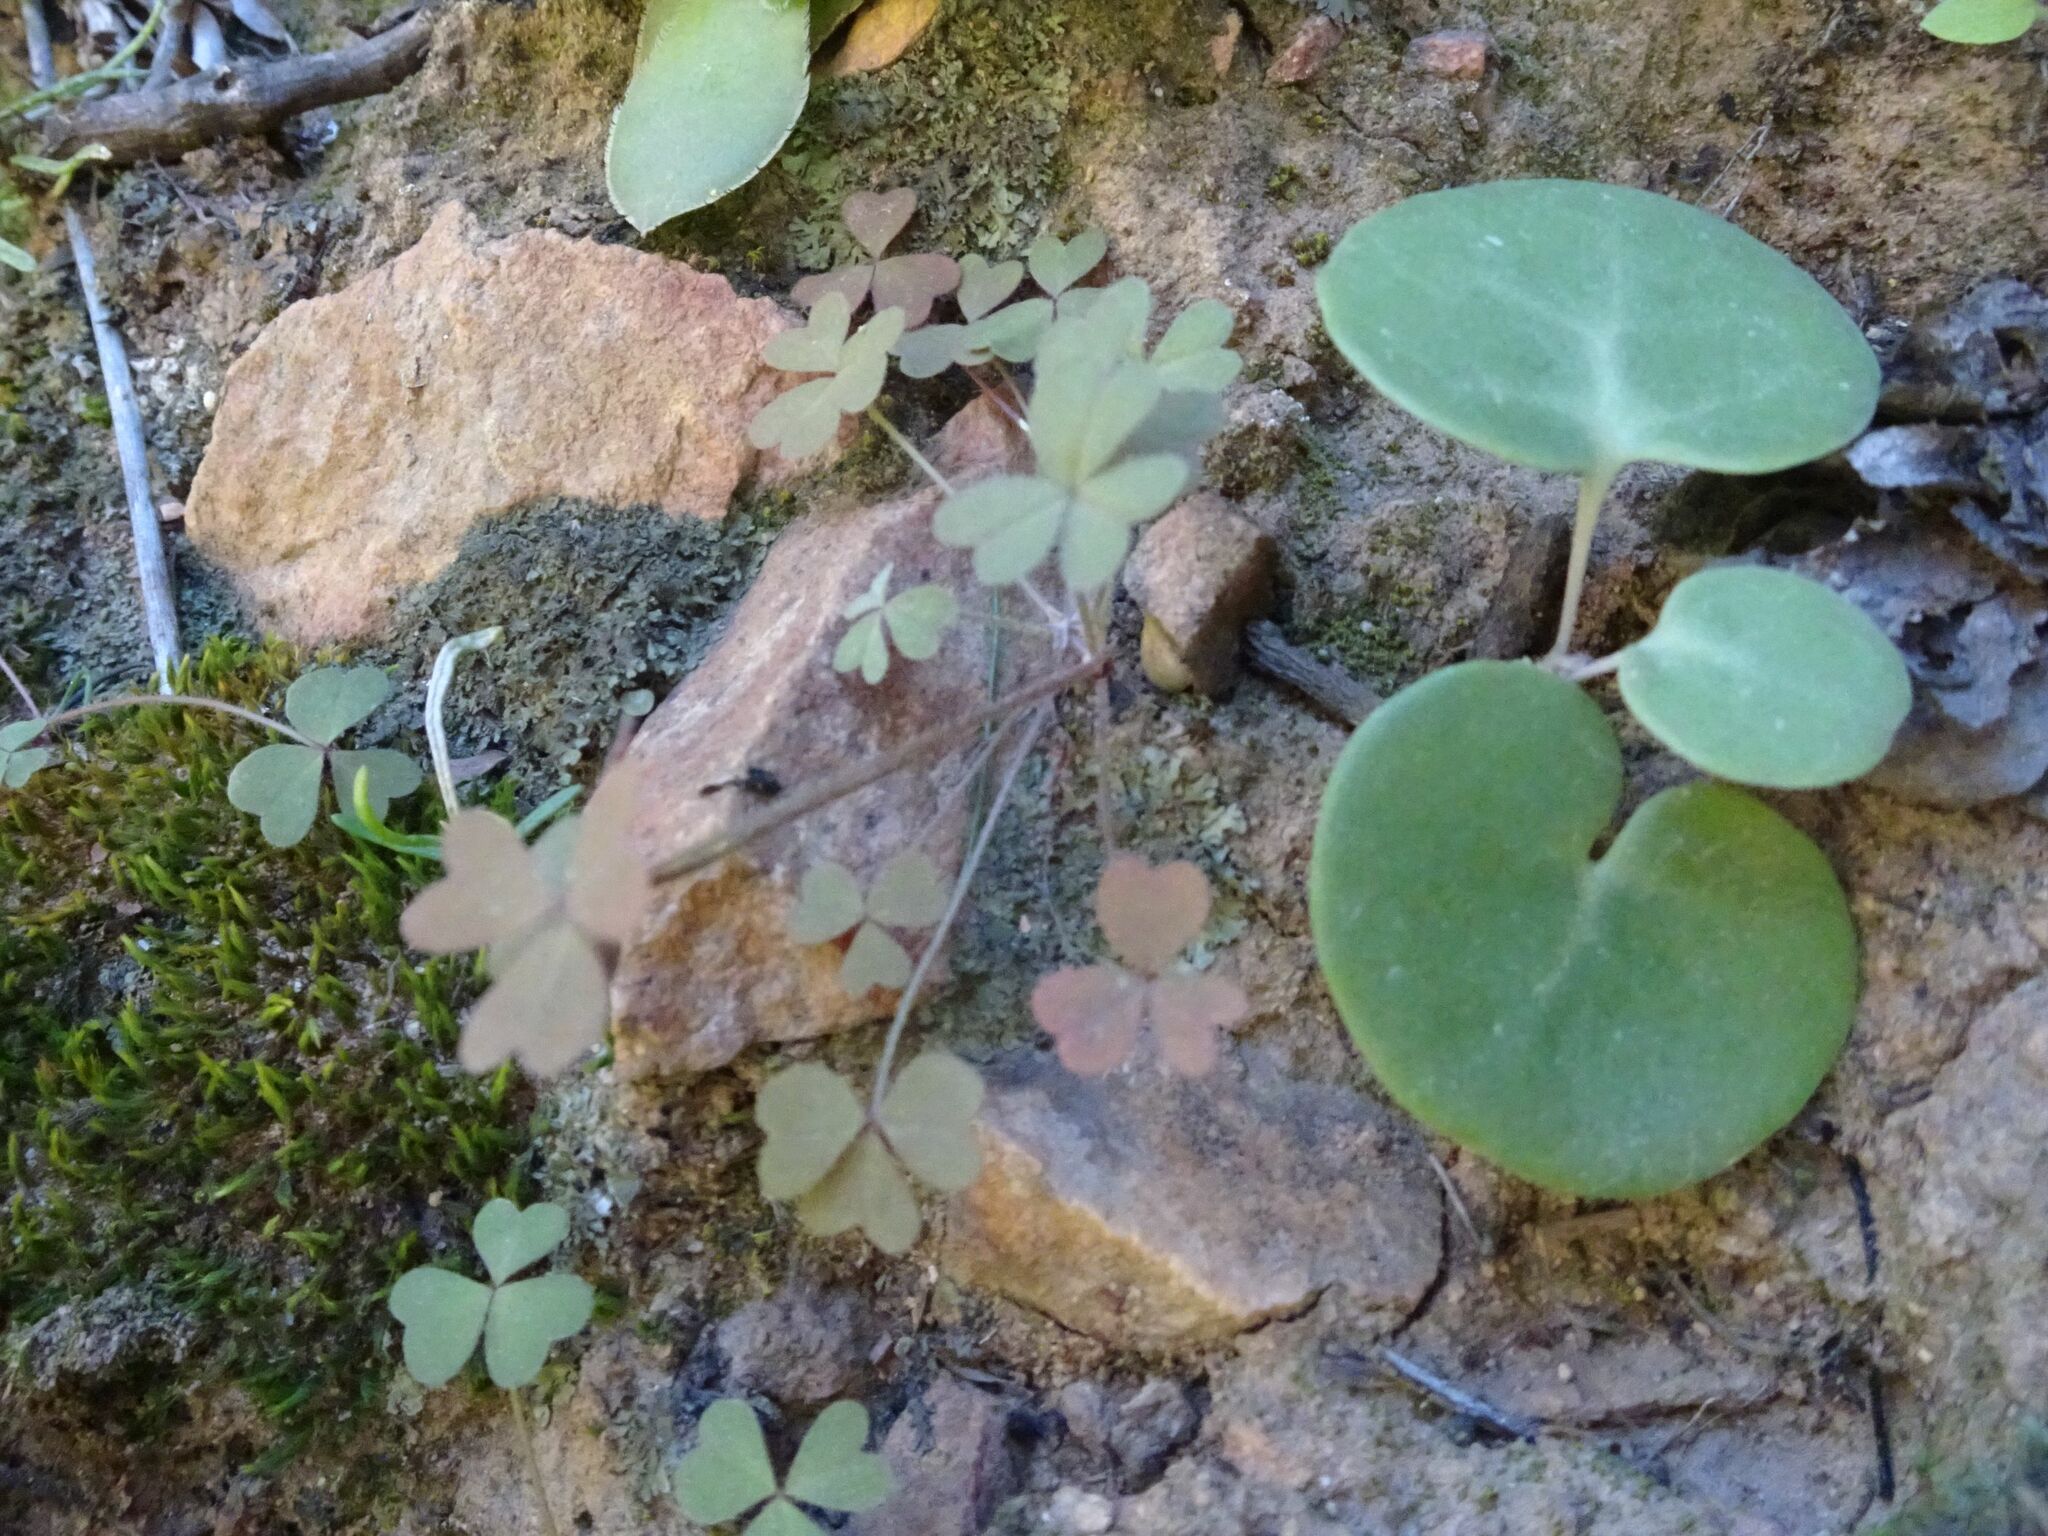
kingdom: Plantae
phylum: Tracheophyta
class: Magnoliopsida
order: Oxalidales
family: Oxalidaceae
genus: Oxalis
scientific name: Oxalis obtusa
